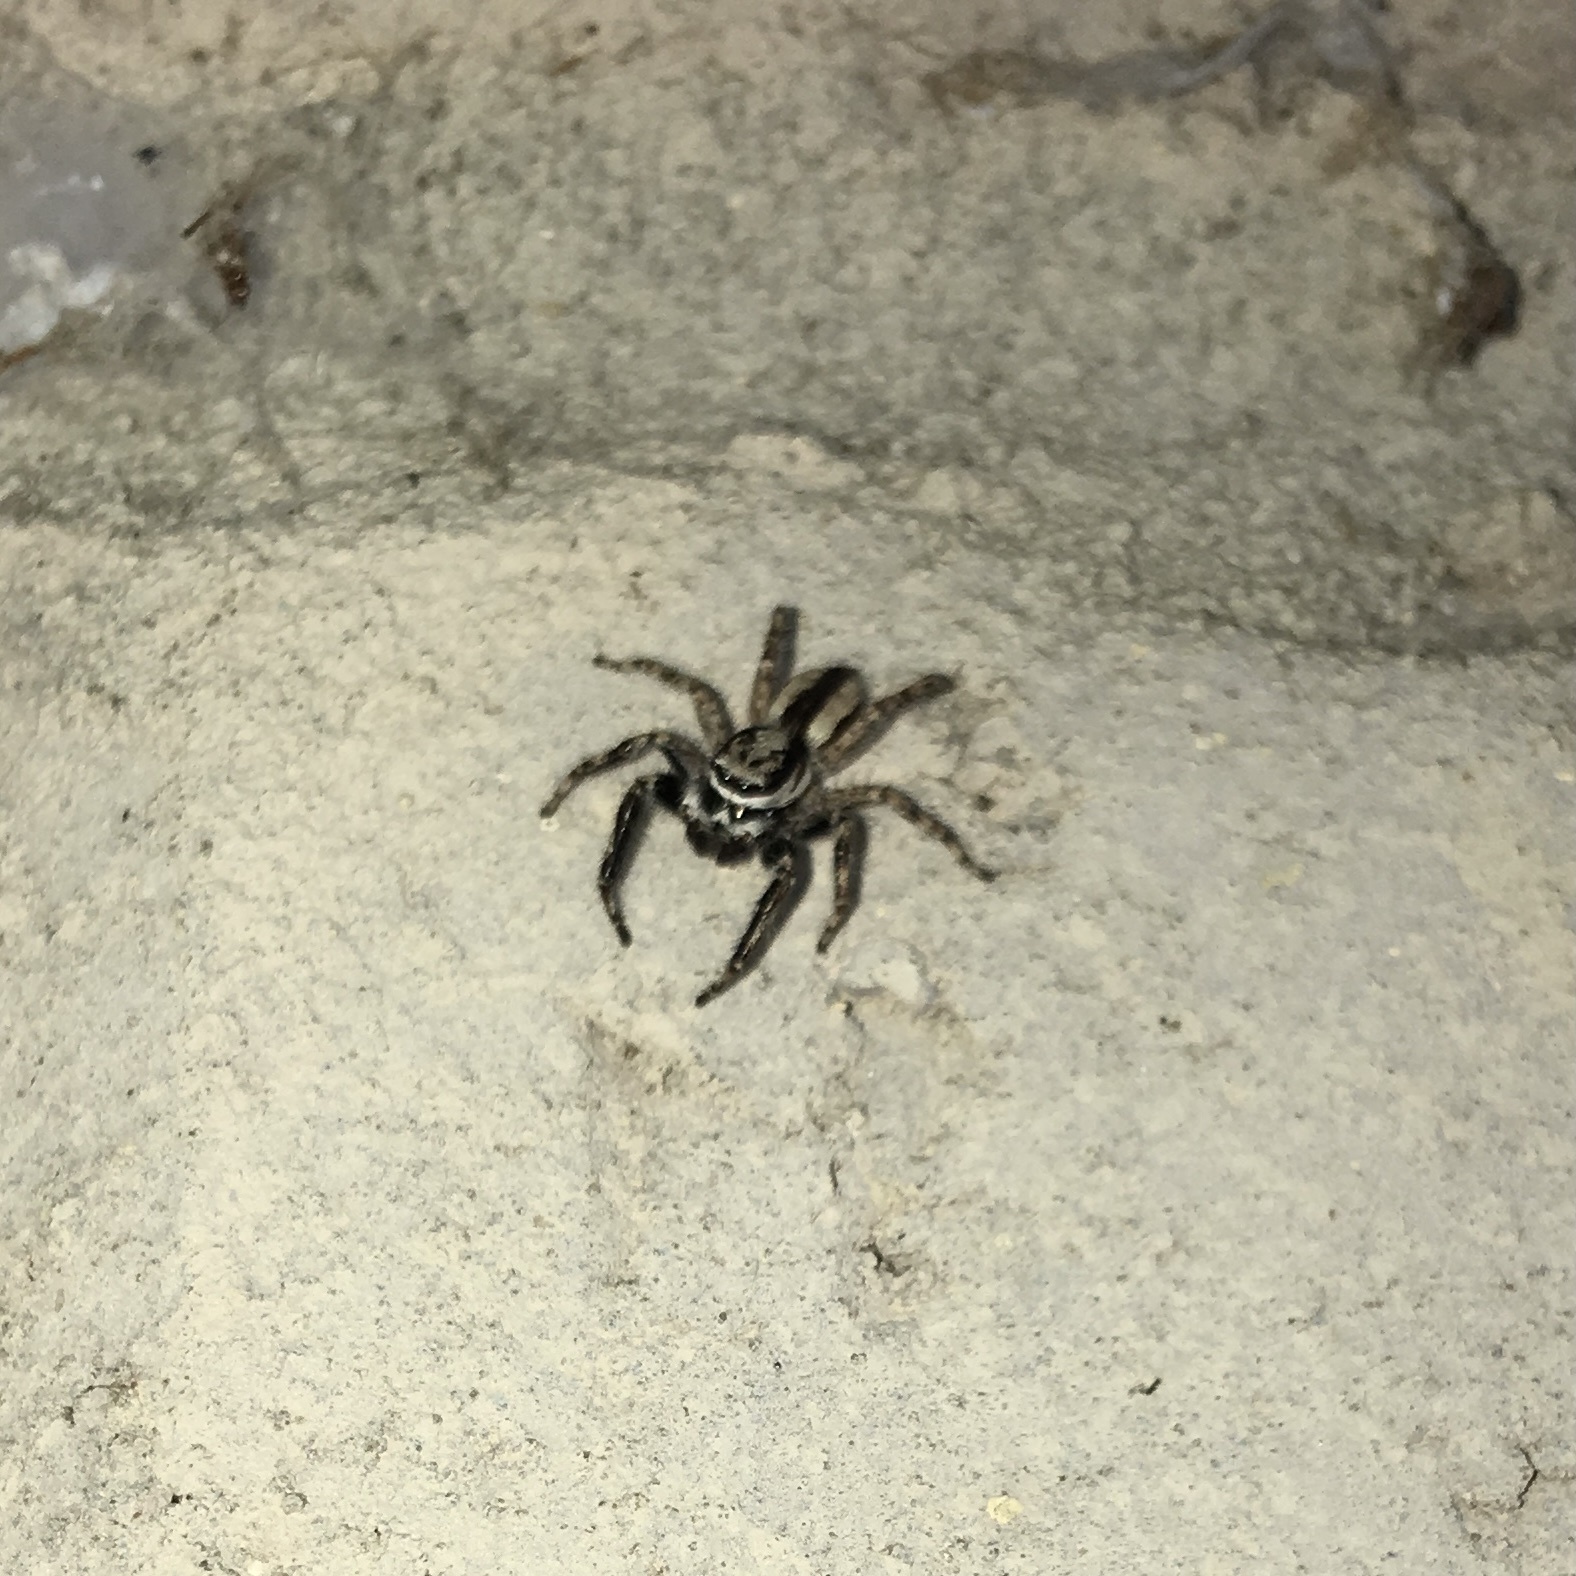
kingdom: Animalia
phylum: Arthropoda
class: Arachnida
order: Araneae
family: Salticidae
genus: Menemerus
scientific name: Menemerus bivittatus
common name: Gray wall jumper
